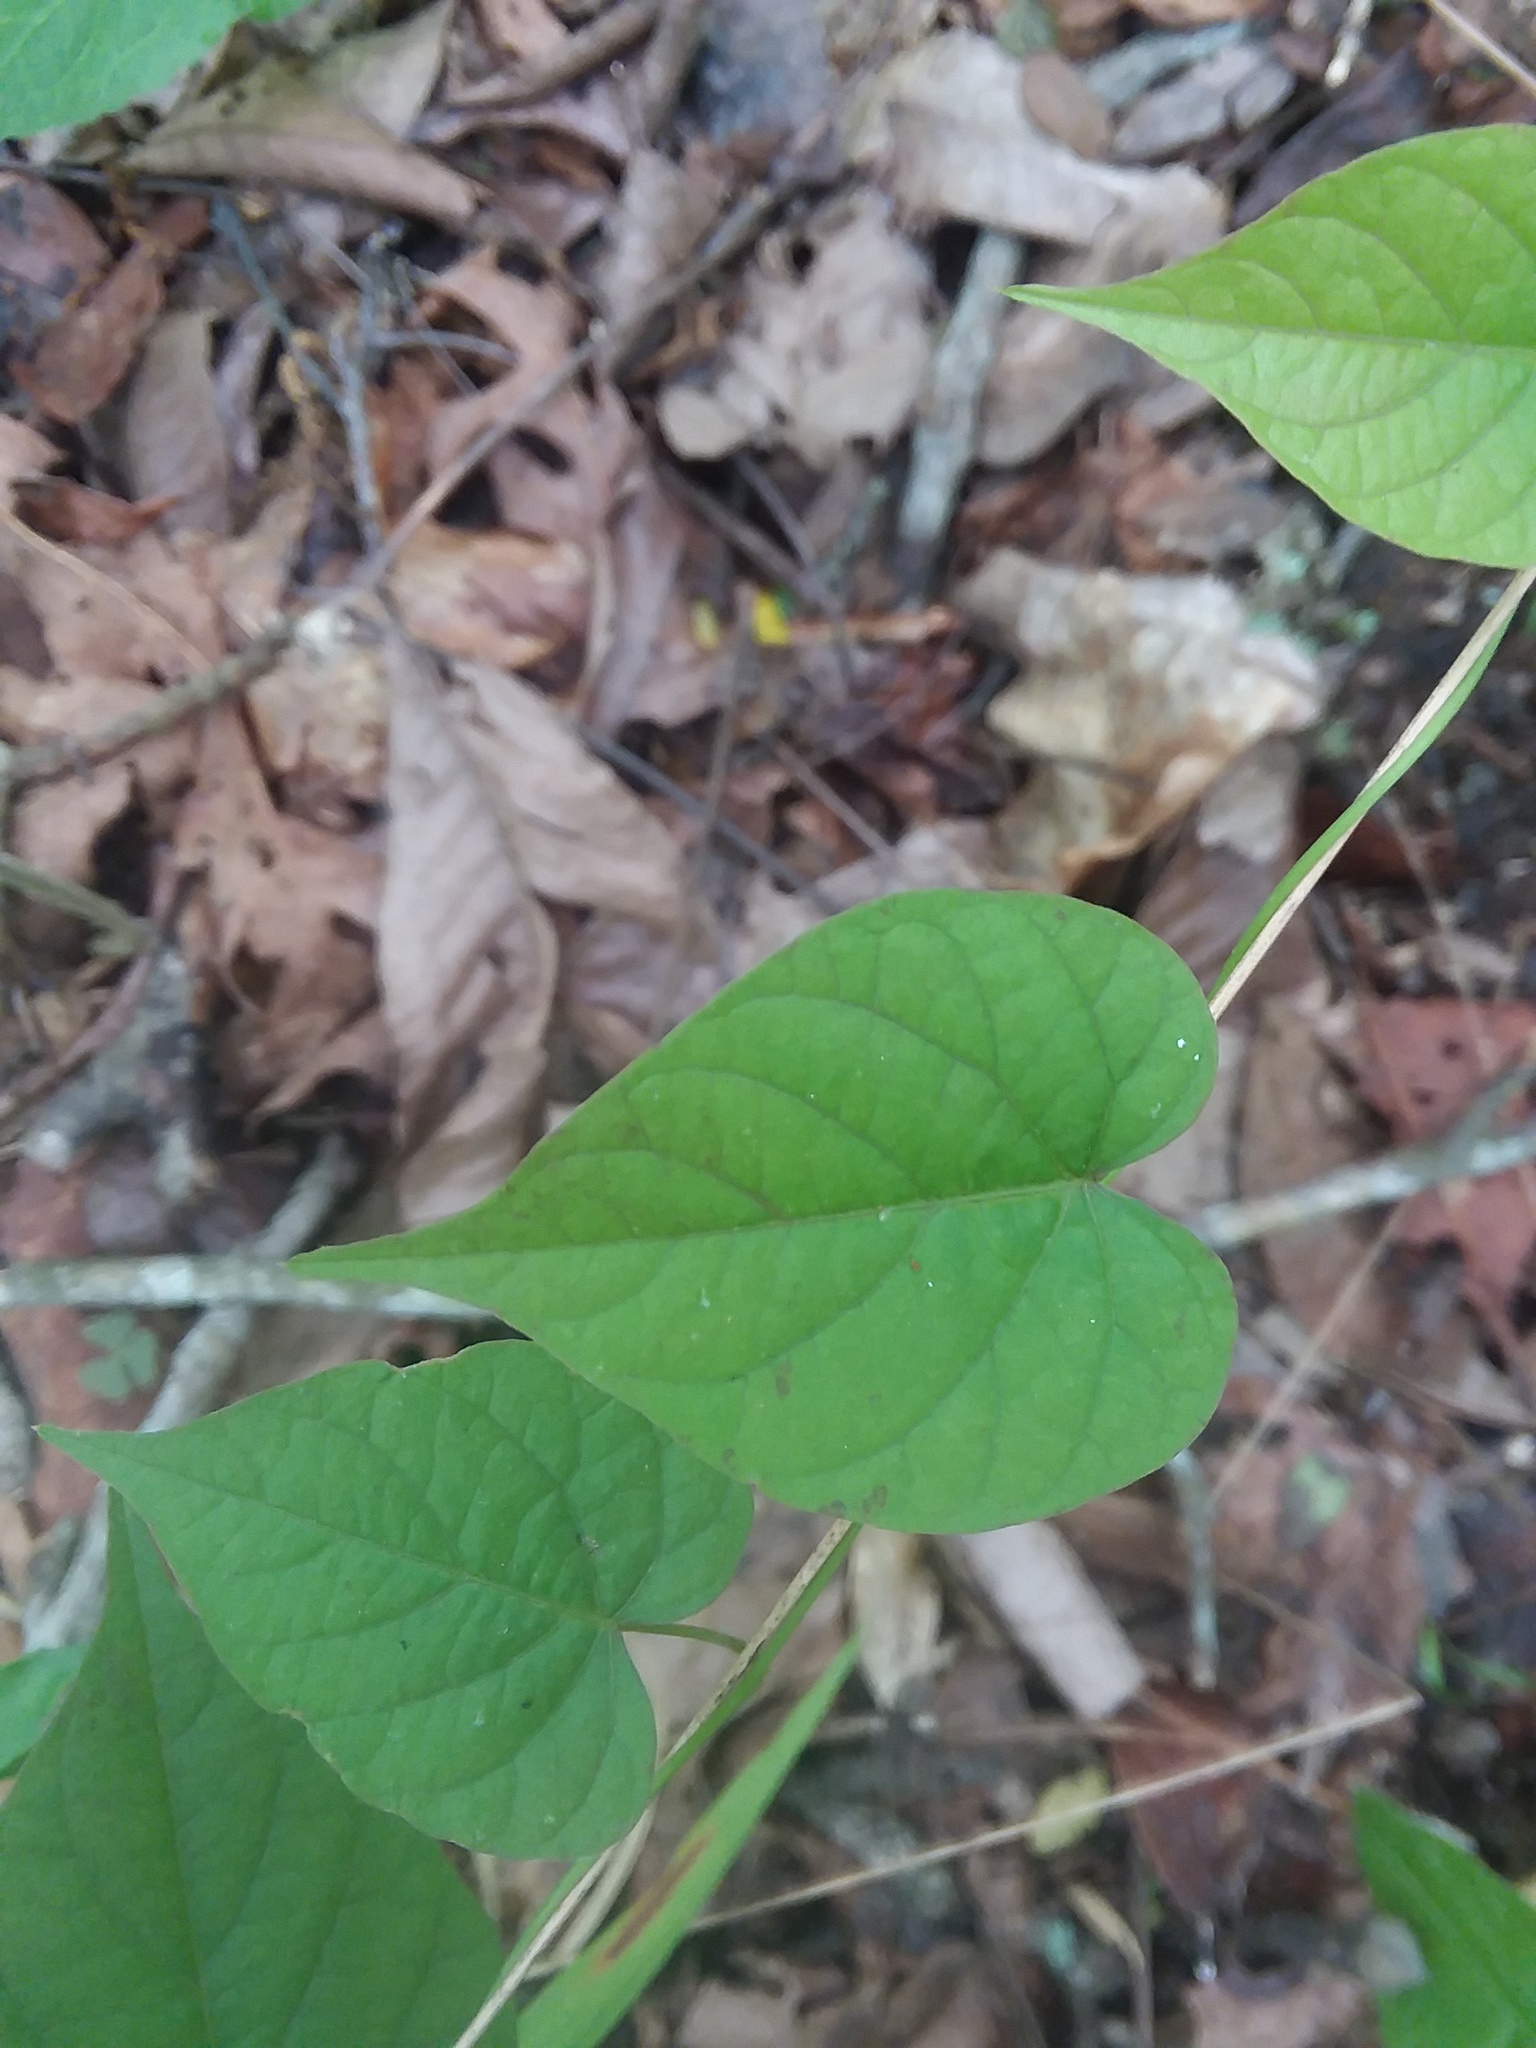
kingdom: Plantae
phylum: Tracheophyta
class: Magnoliopsida
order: Solanales
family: Convolvulaceae
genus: Ipomoea
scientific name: Ipomoea pandurata
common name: Man-of-the-earth
